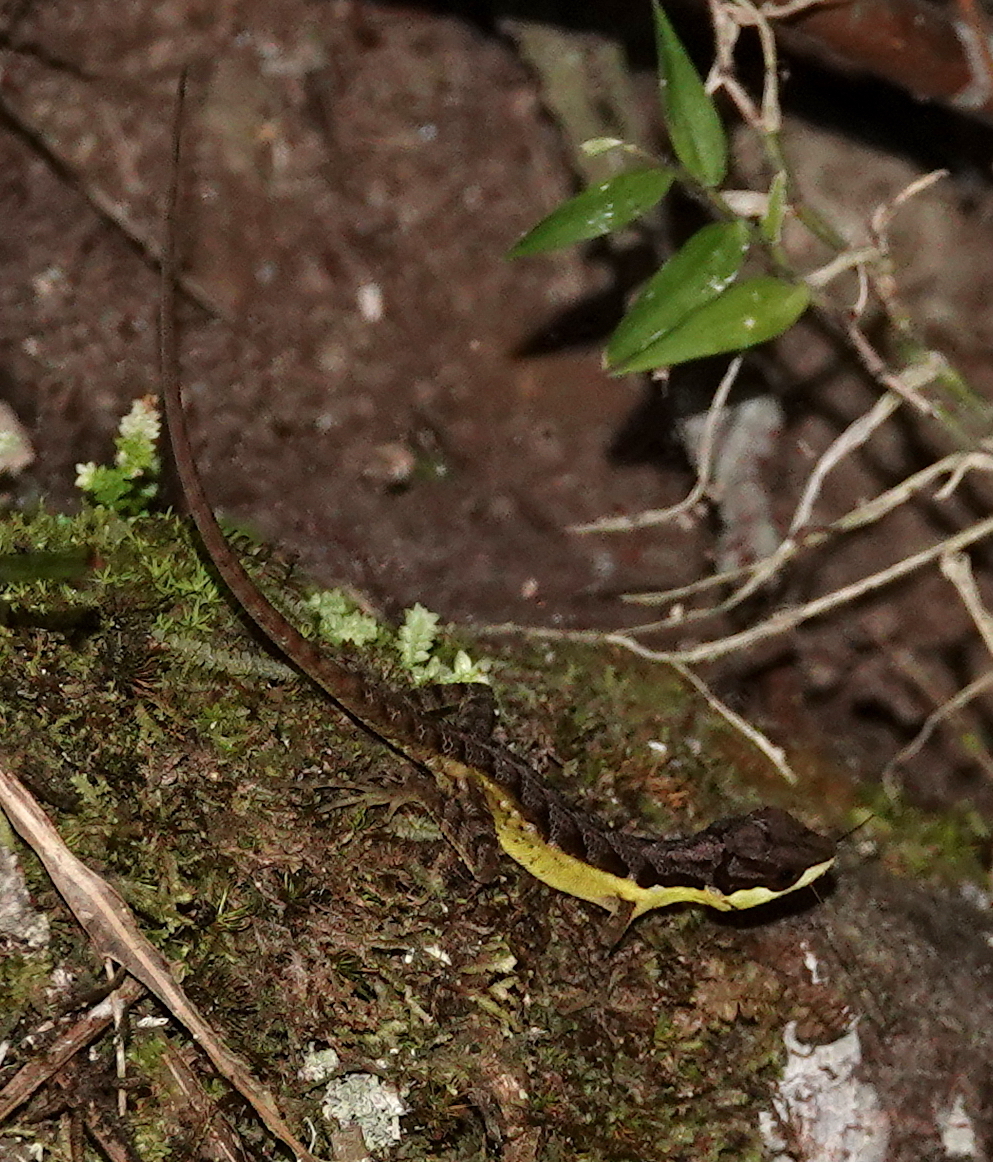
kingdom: Animalia
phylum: Chordata
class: Squamata
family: Dactyloidae
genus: Anolis
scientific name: Anolis notopholis
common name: Scalyback anole
